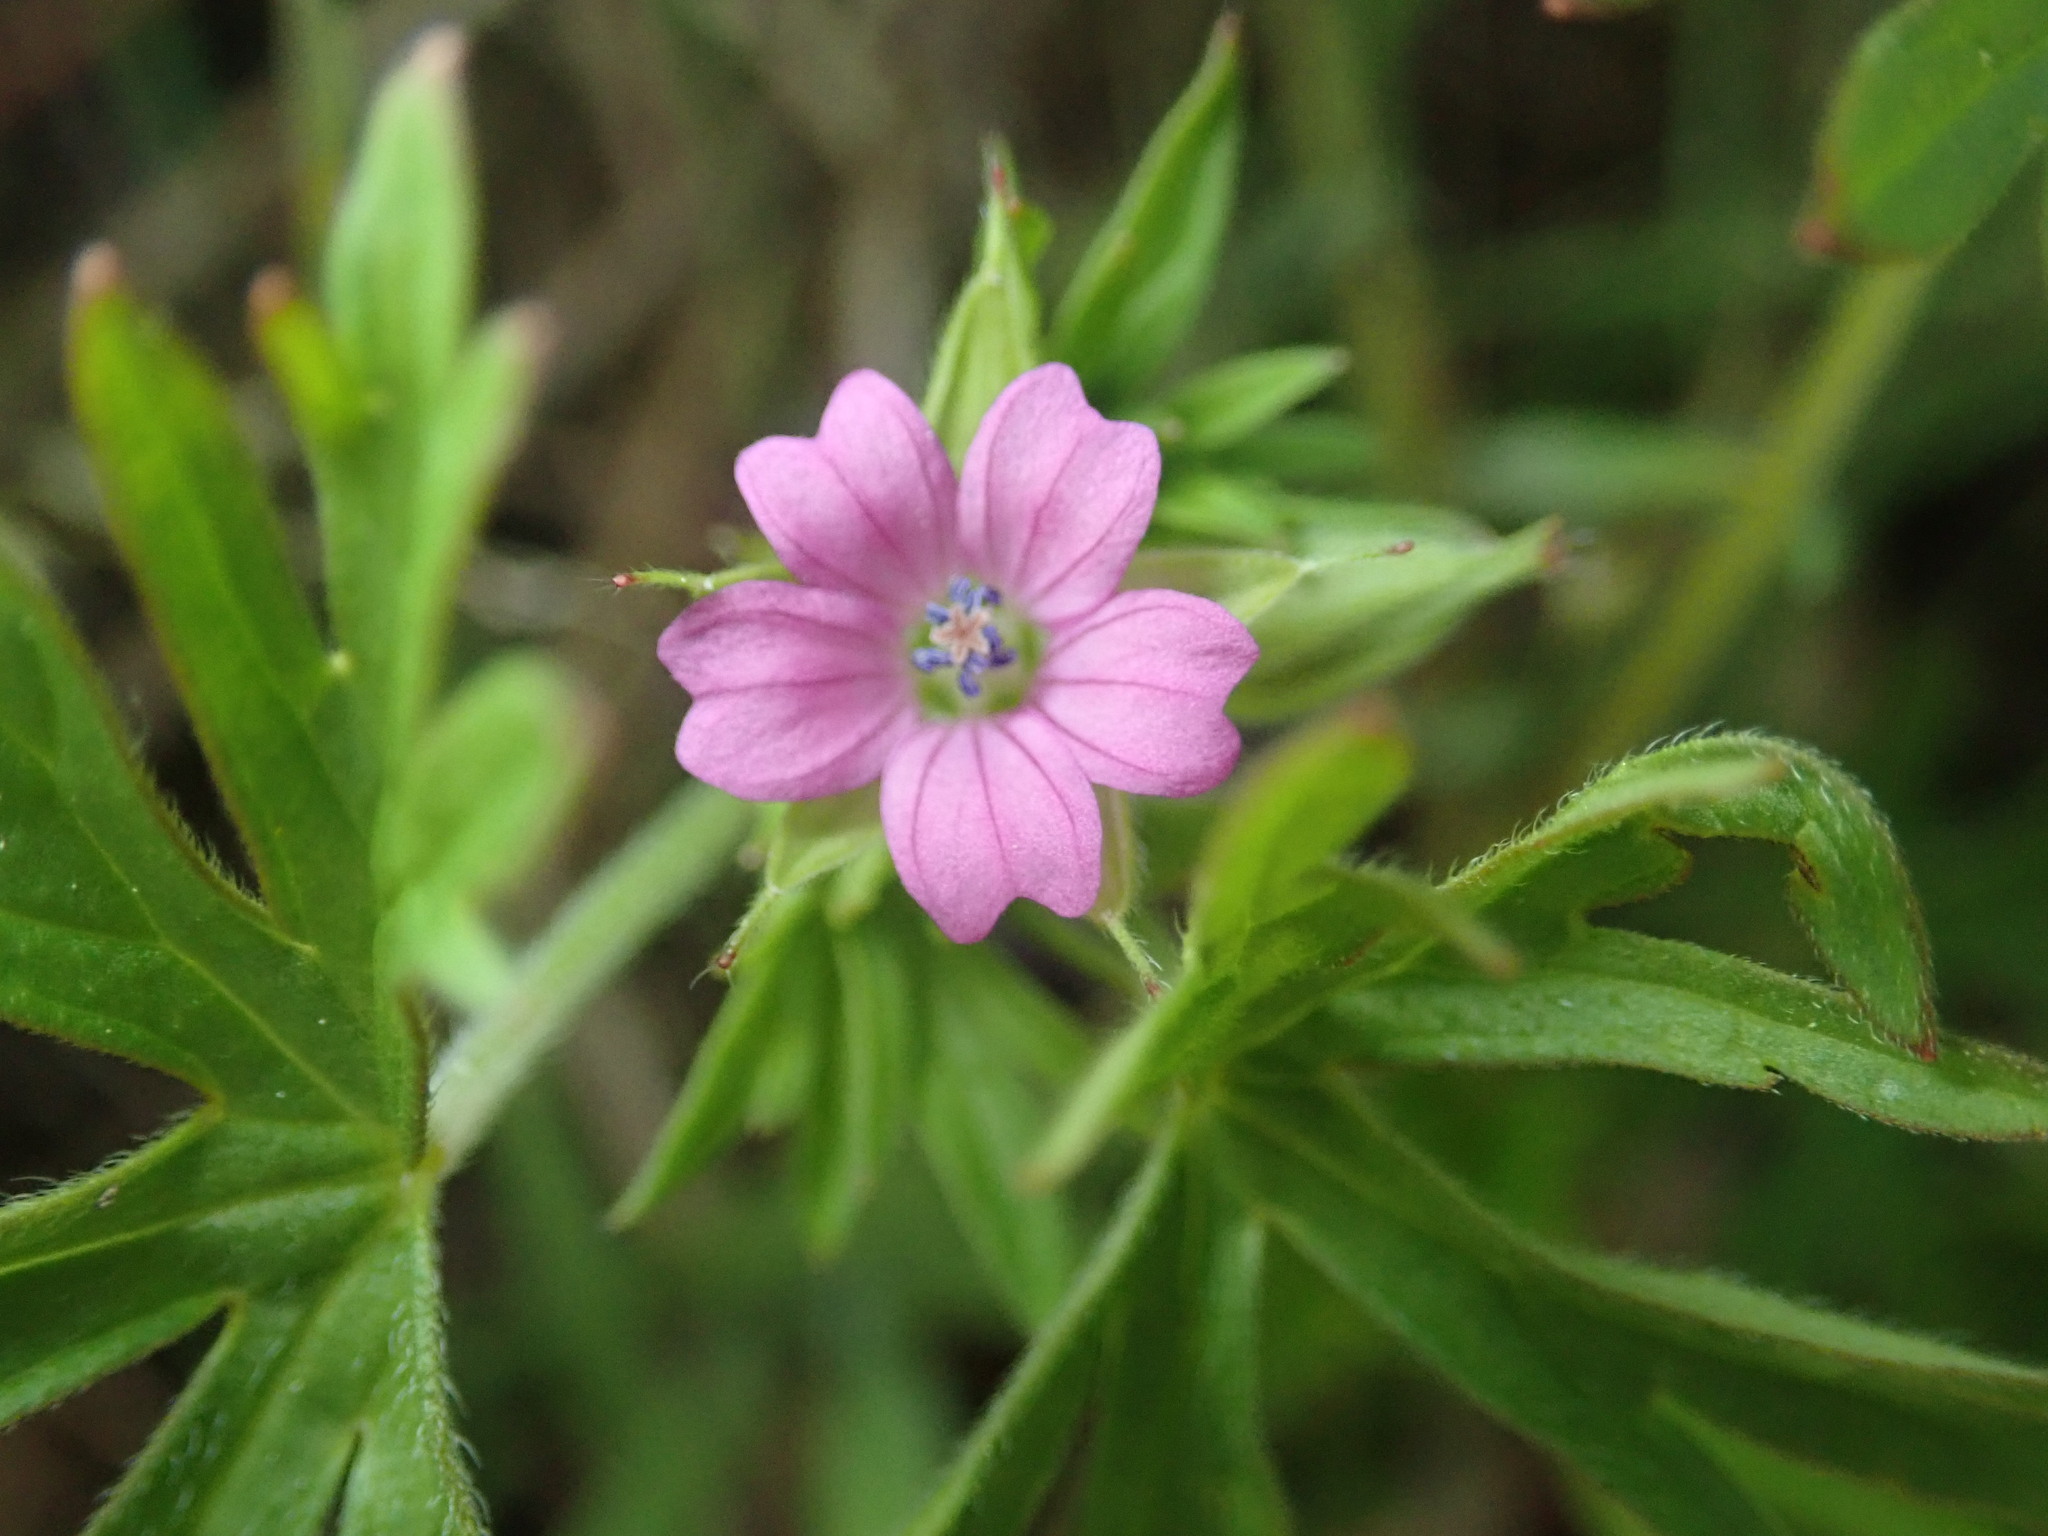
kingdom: Plantae
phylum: Tracheophyta
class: Magnoliopsida
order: Geraniales
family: Geraniaceae
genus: Geranium
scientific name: Geranium dissectum
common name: Cut-leaved crane's-bill
